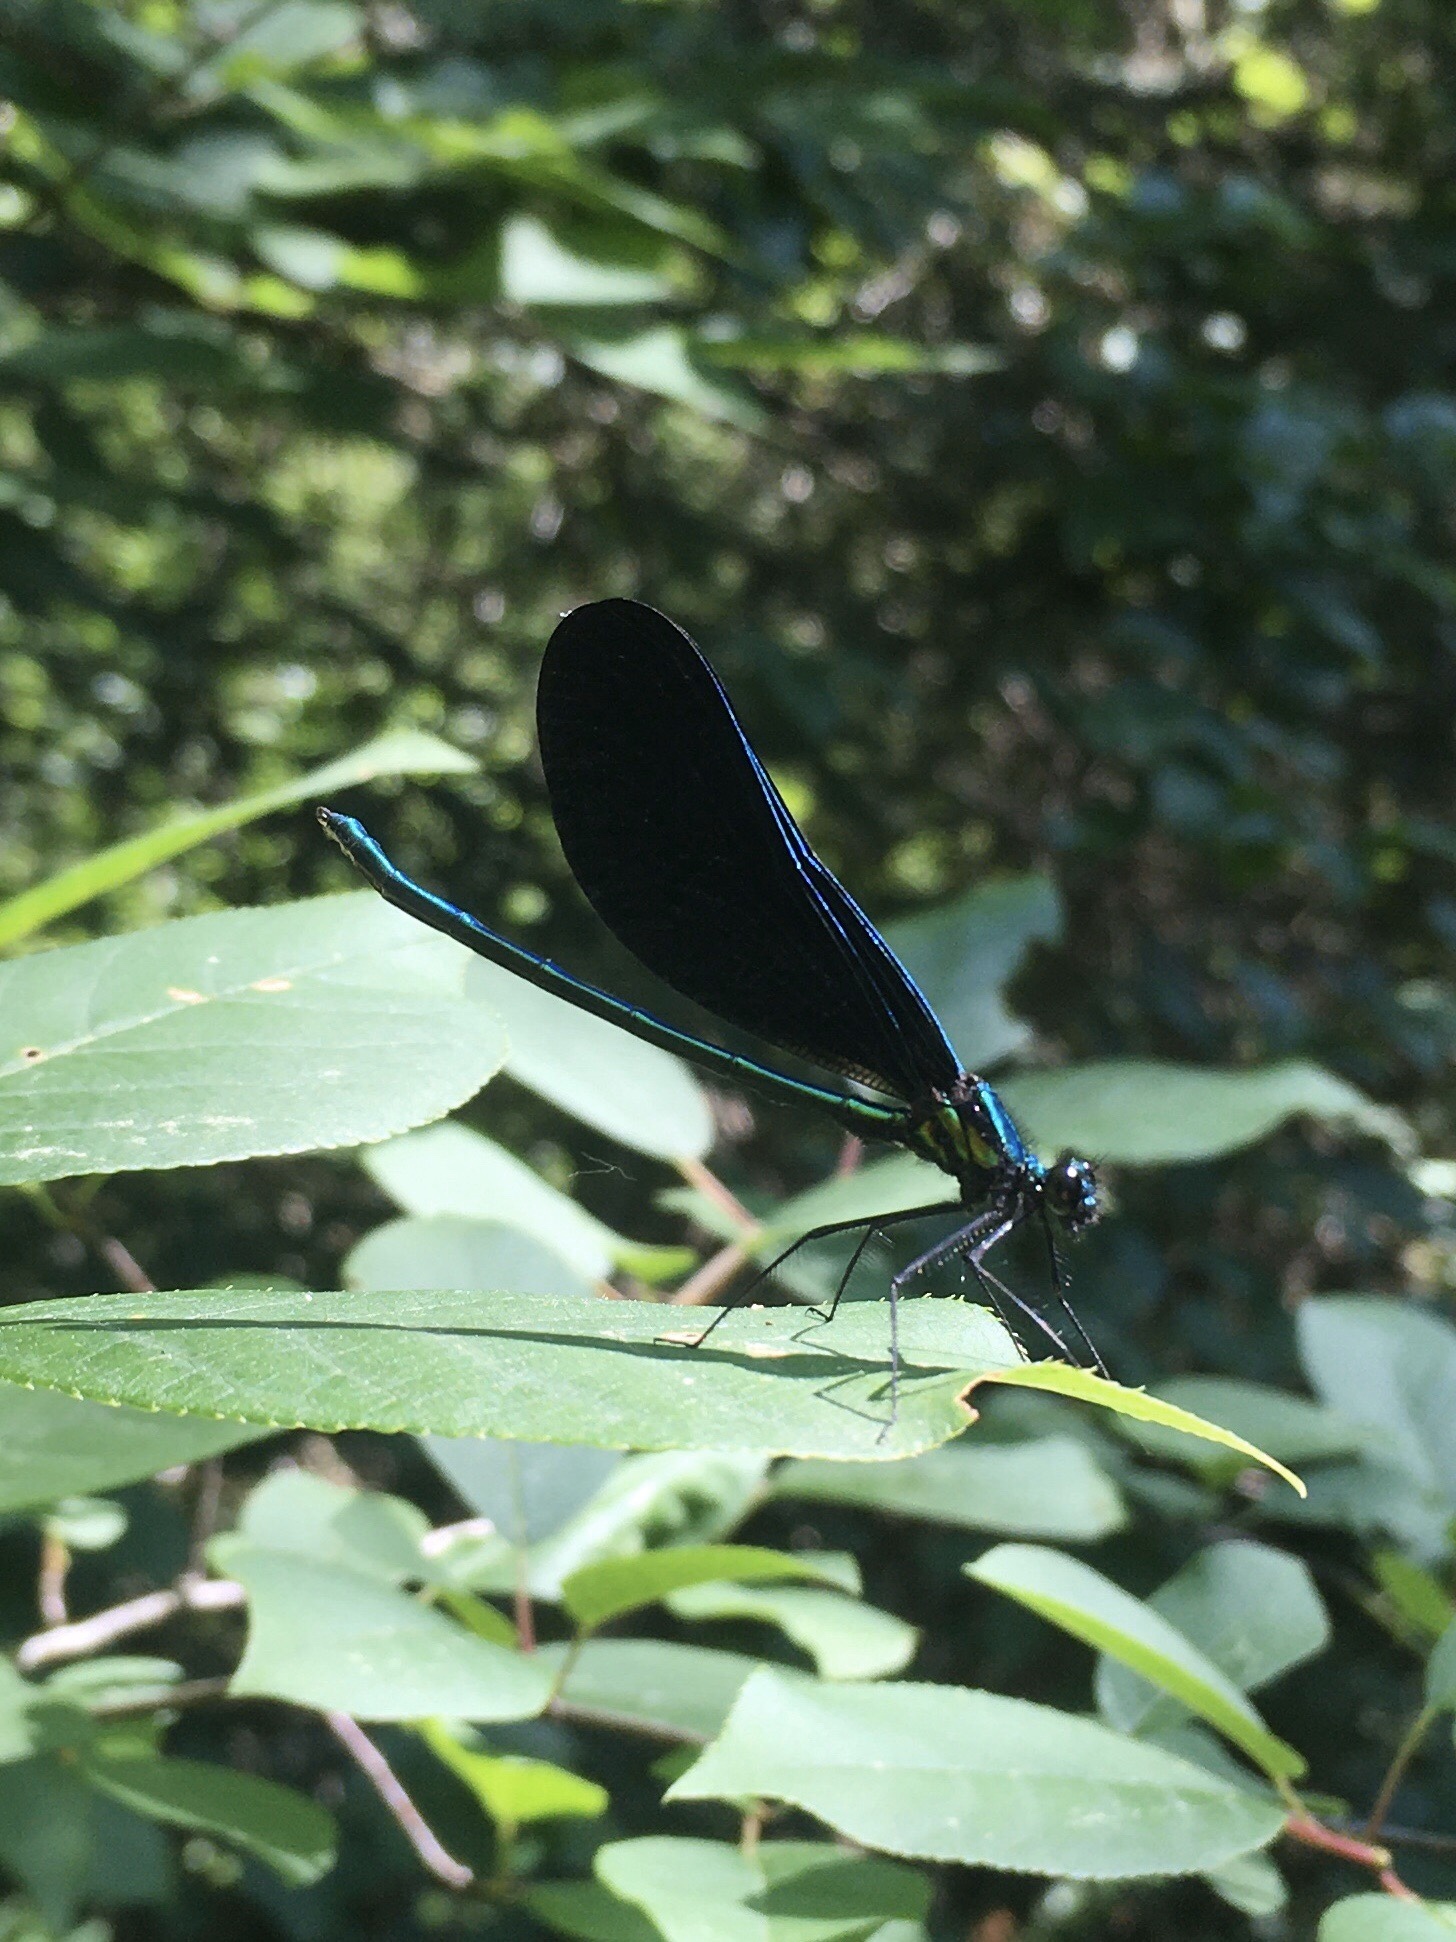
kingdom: Animalia
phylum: Arthropoda
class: Insecta
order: Odonata
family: Calopterygidae
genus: Calopteryx
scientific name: Calopteryx maculata
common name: Ebony jewelwing
